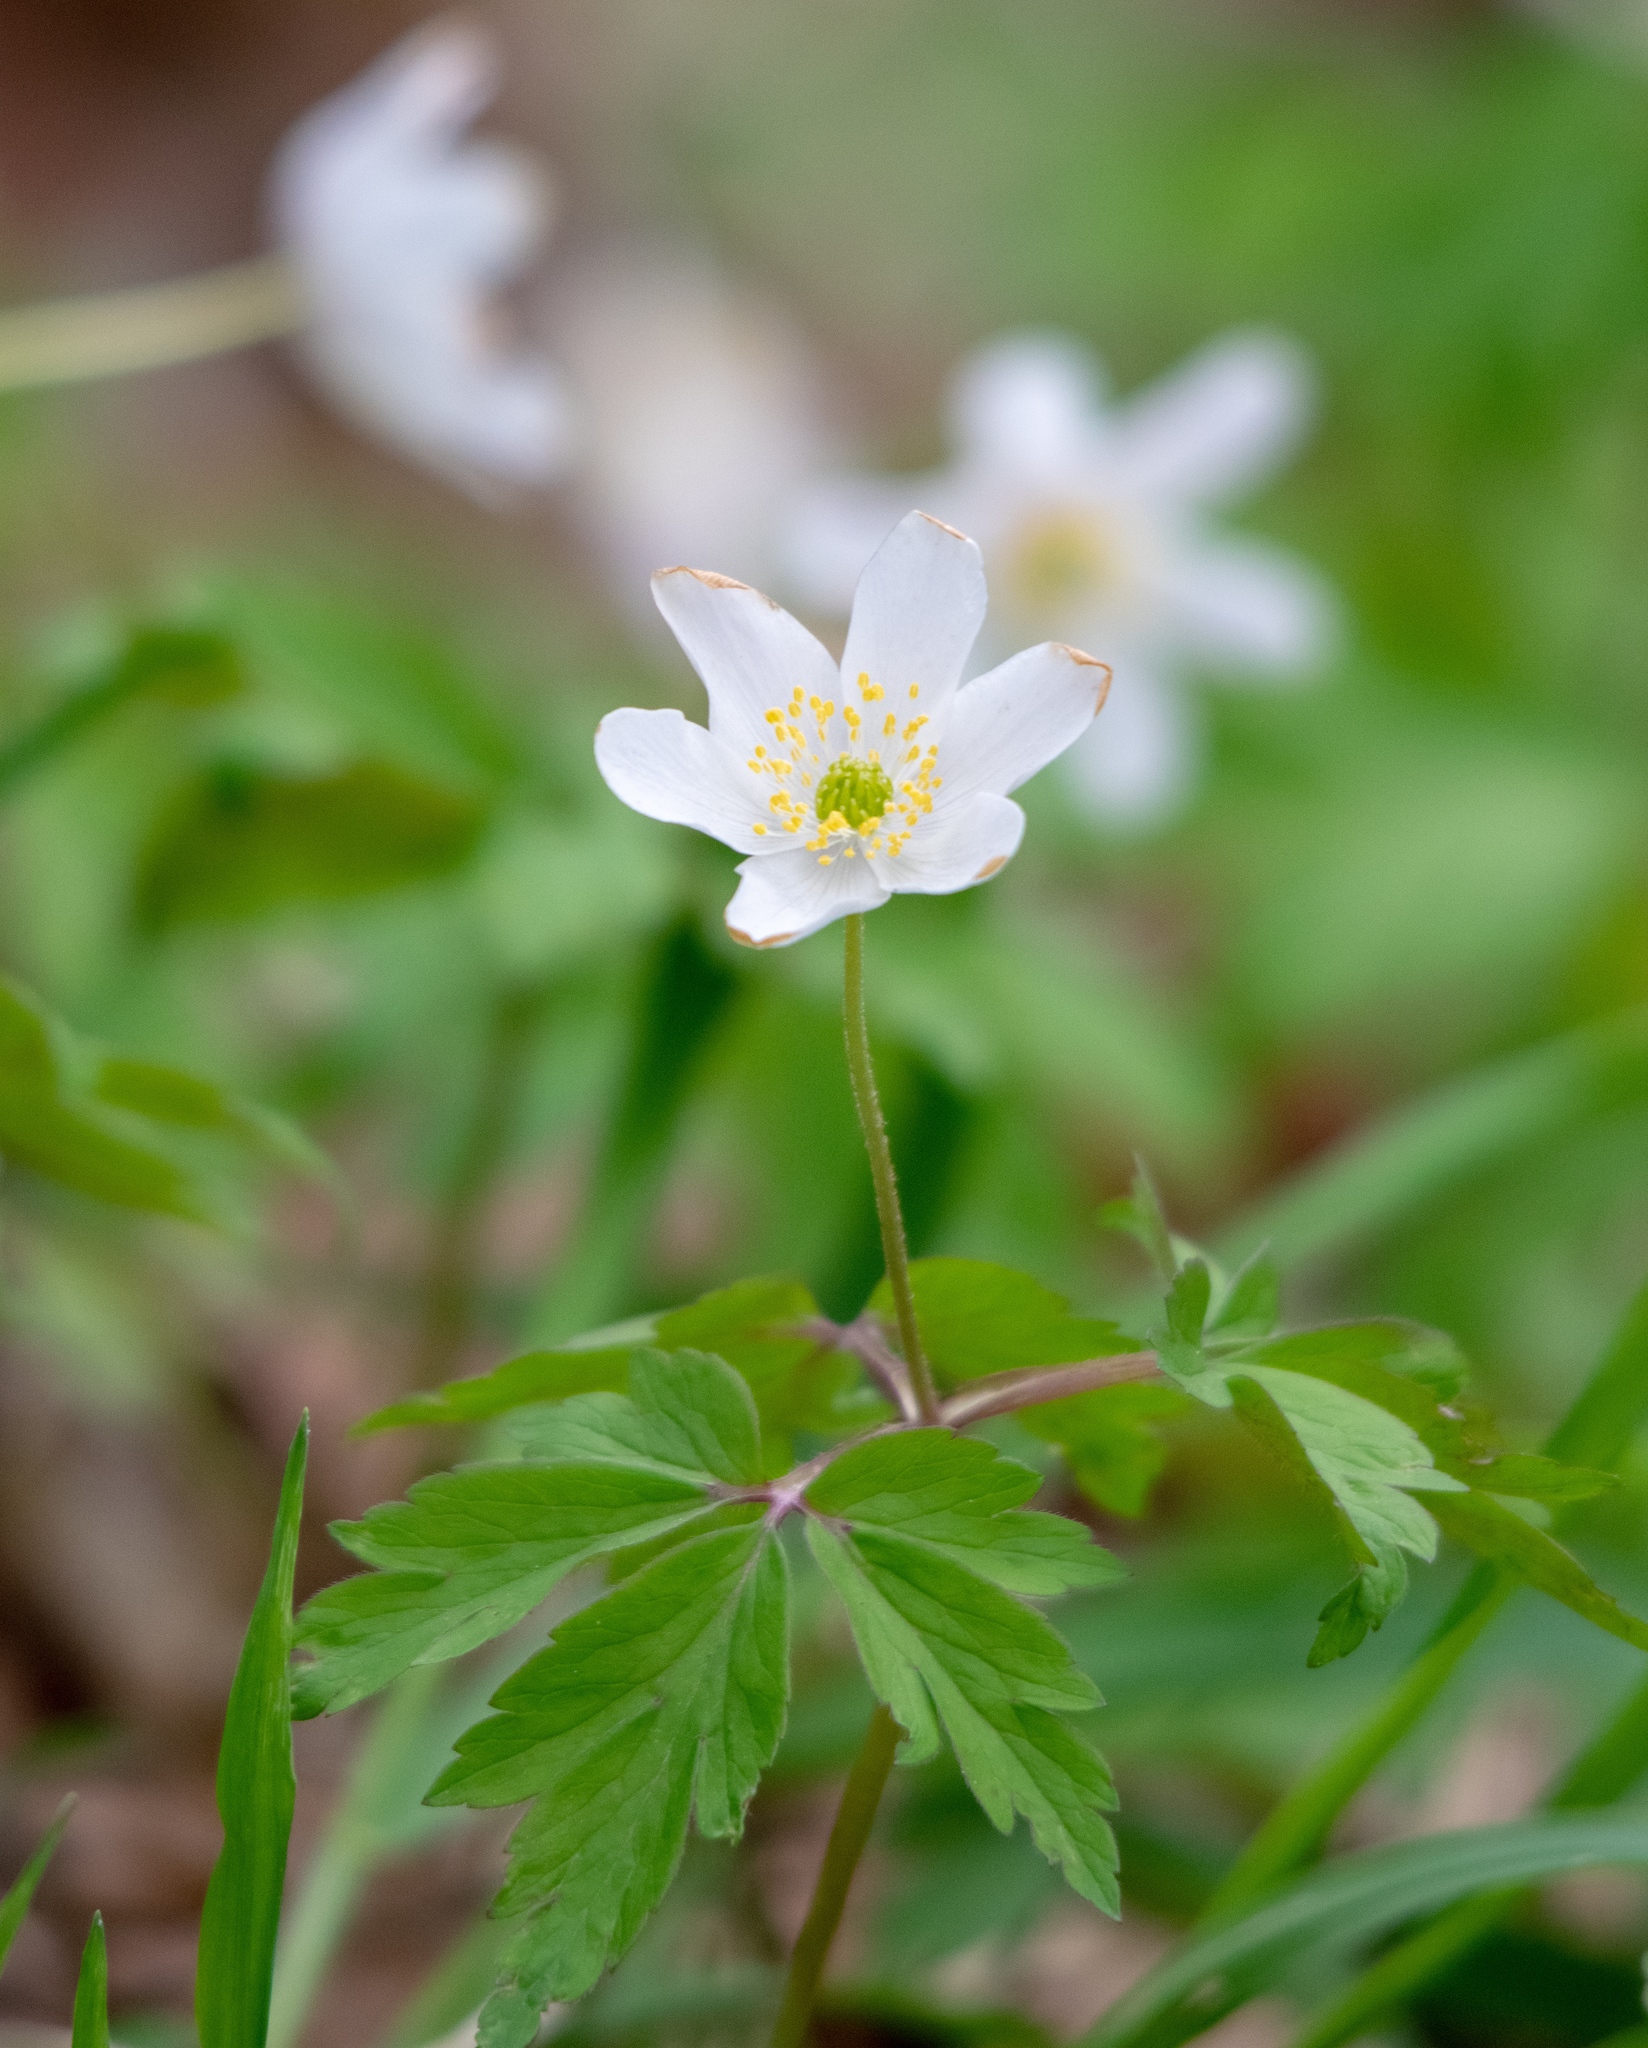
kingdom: Plantae
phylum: Tracheophyta
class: Magnoliopsida
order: Ranunculales
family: Ranunculaceae
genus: Anemone
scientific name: Anemone nemorosa
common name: Wood anemone
